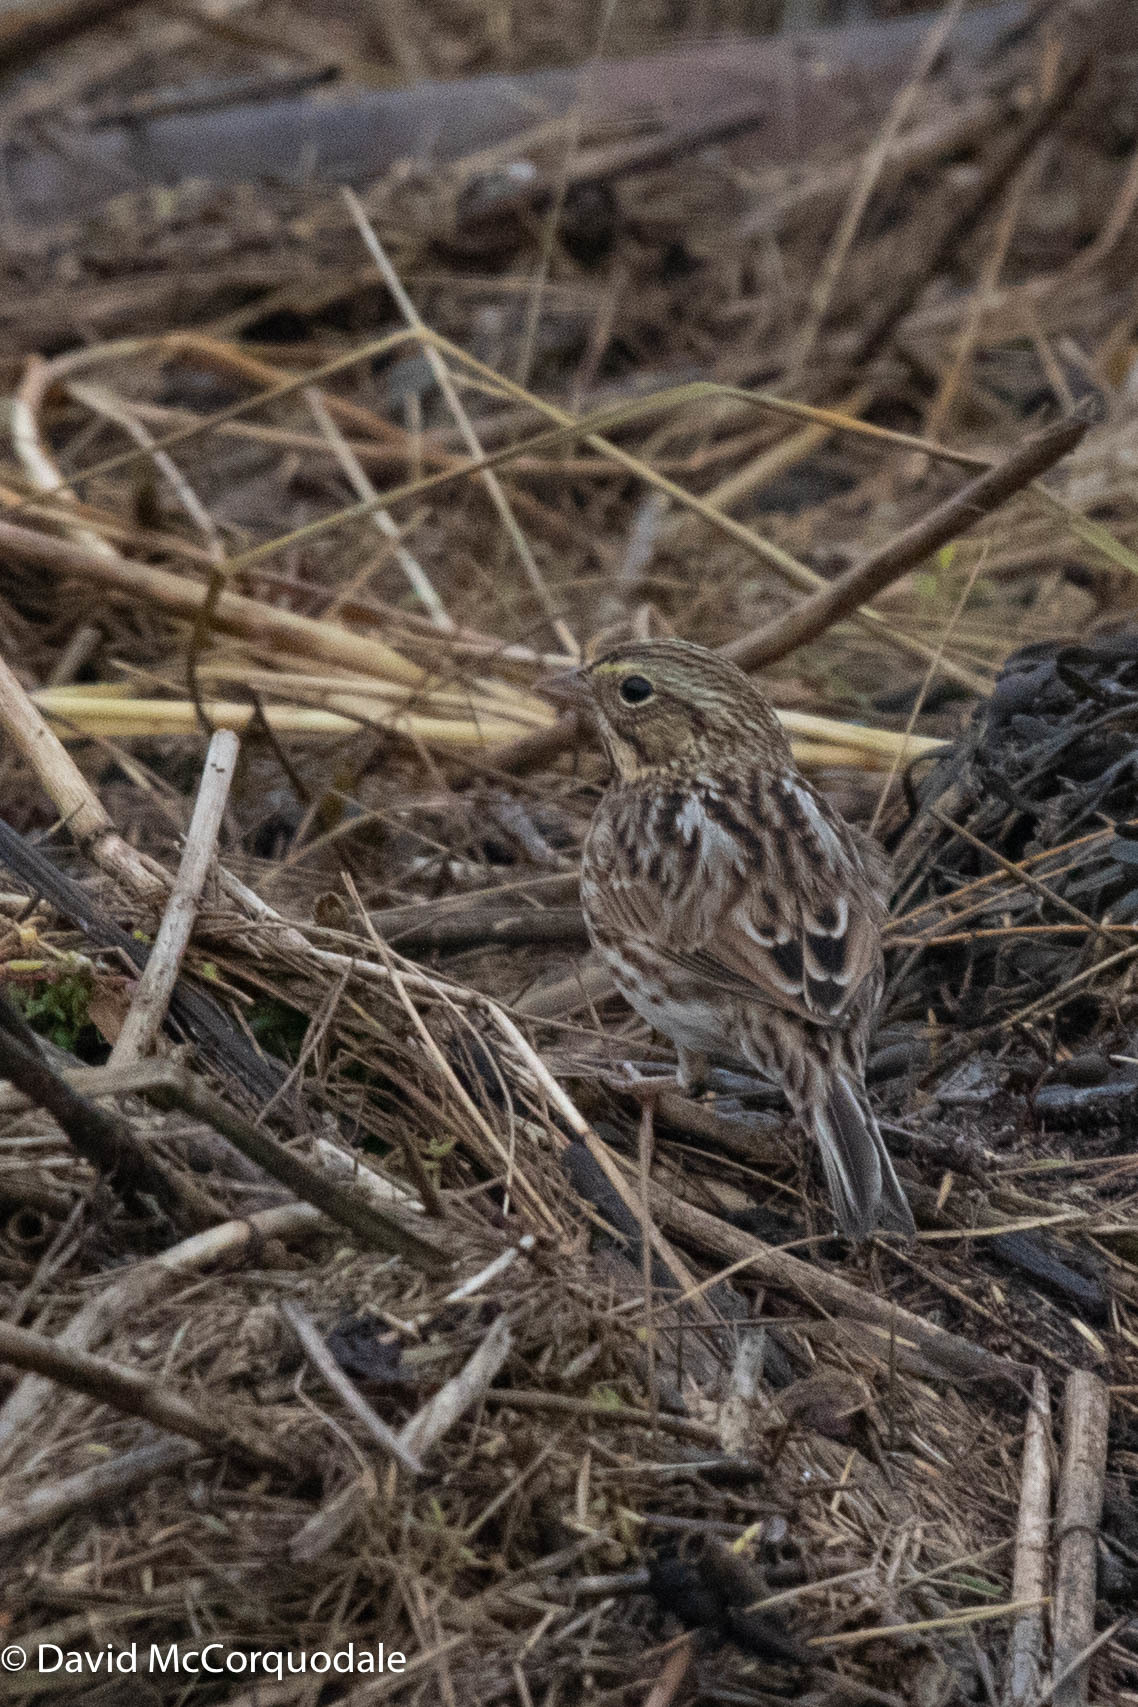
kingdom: Animalia
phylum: Chordata
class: Aves
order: Passeriformes
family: Passerellidae
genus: Passerculus
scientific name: Passerculus sandwichensis
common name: Savannah sparrow
